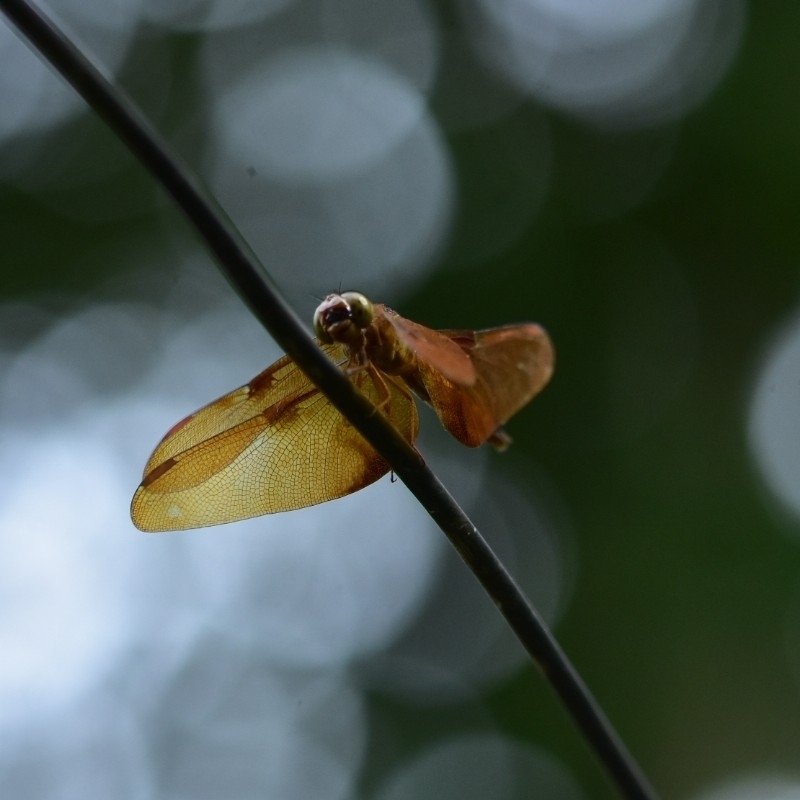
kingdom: Animalia
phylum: Arthropoda
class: Insecta
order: Odonata
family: Libellulidae
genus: Neurothemis
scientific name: Neurothemis fulvia
